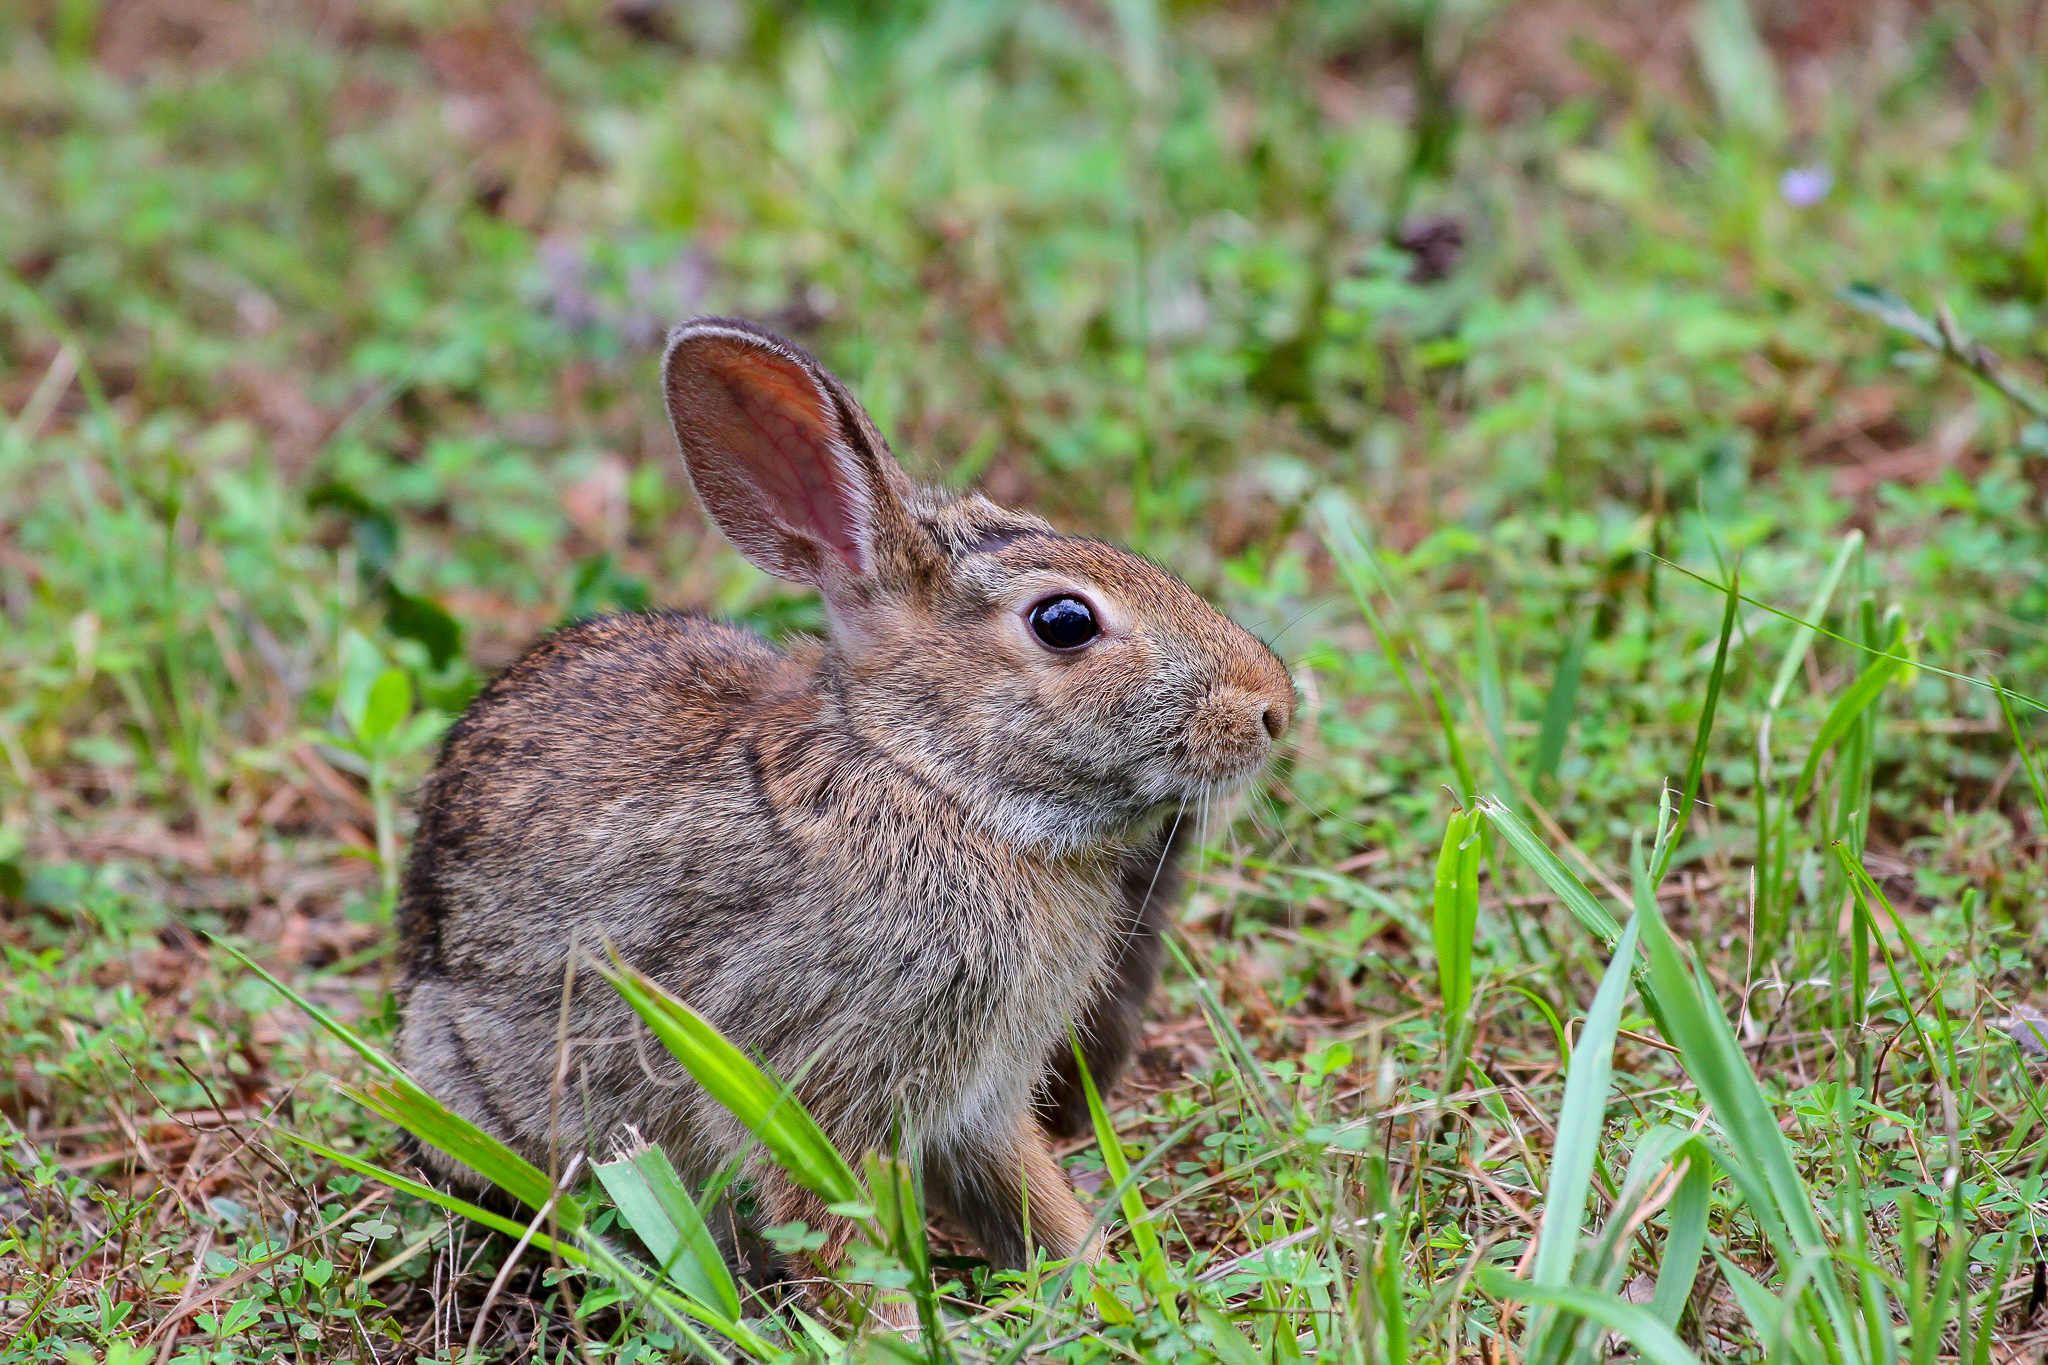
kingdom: Animalia
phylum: Chordata
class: Mammalia
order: Lagomorpha
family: Leporidae
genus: Sylvilagus
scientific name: Sylvilagus floridanus
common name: Eastern cottontail
